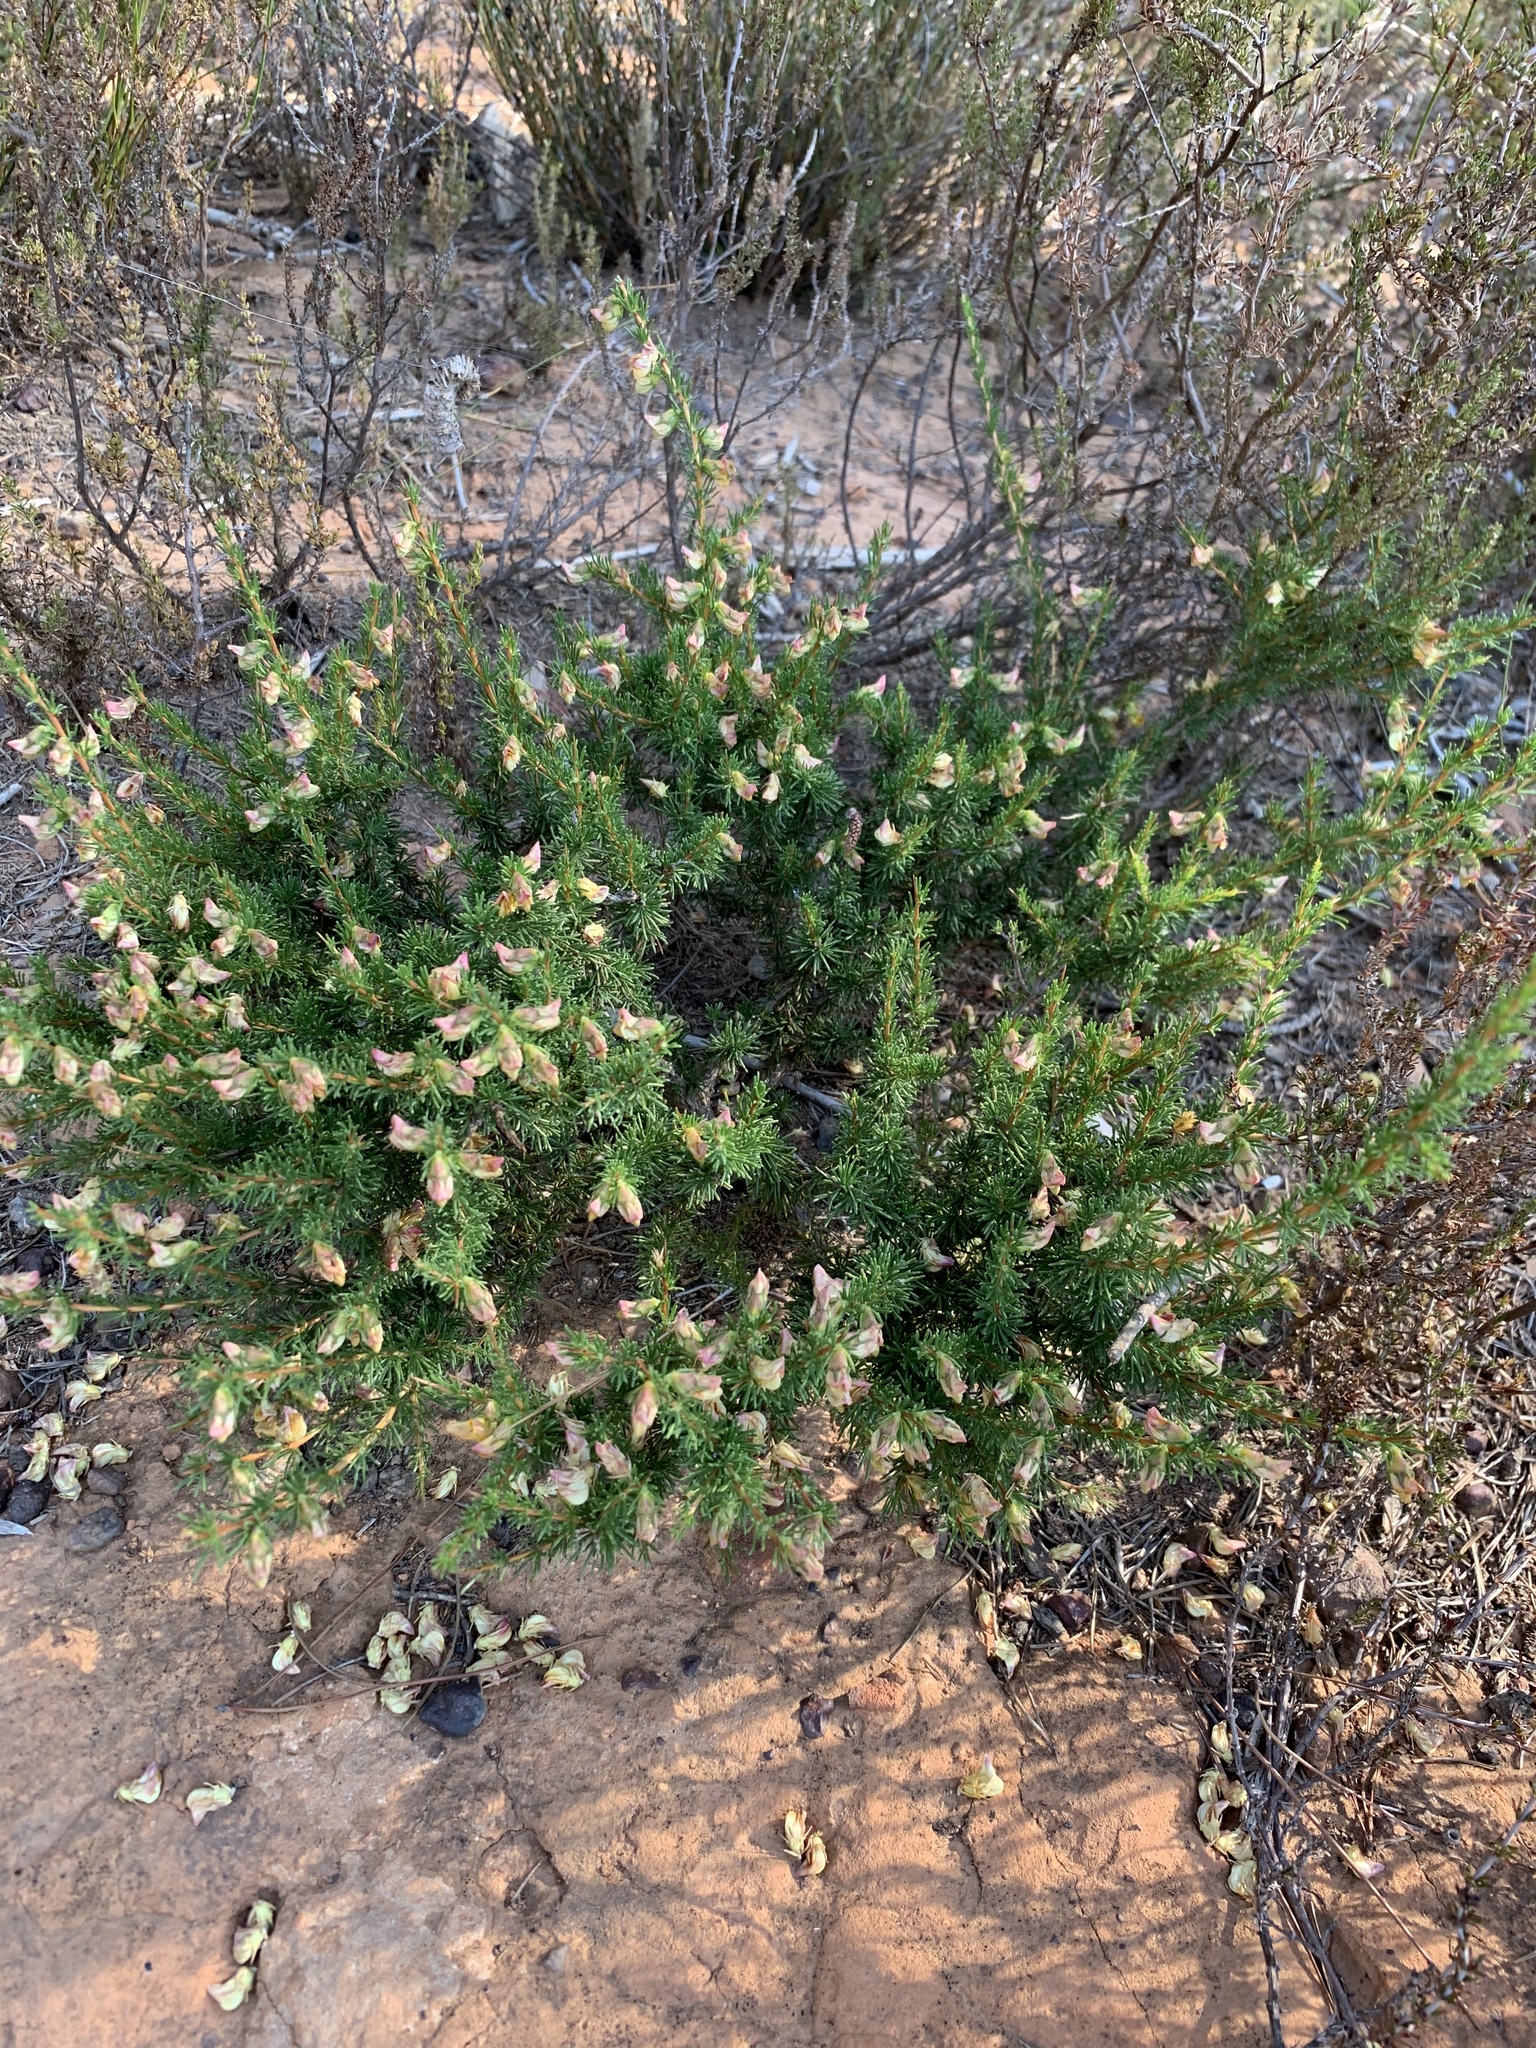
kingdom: Plantae
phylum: Tracheophyta
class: Magnoliopsida
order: Fabales
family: Fabaceae
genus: Aspalathus
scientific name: Aspalathus arida
